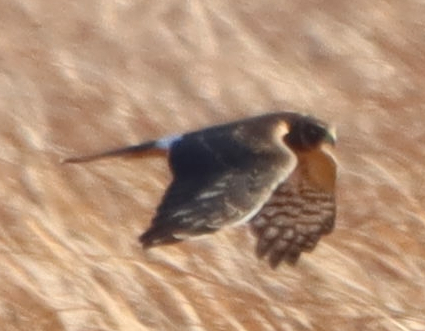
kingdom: Animalia
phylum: Chordata
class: Aves
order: Accipitriformes
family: Accipitridae
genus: Circus
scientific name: Circus cyaneus
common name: Hen harrier
